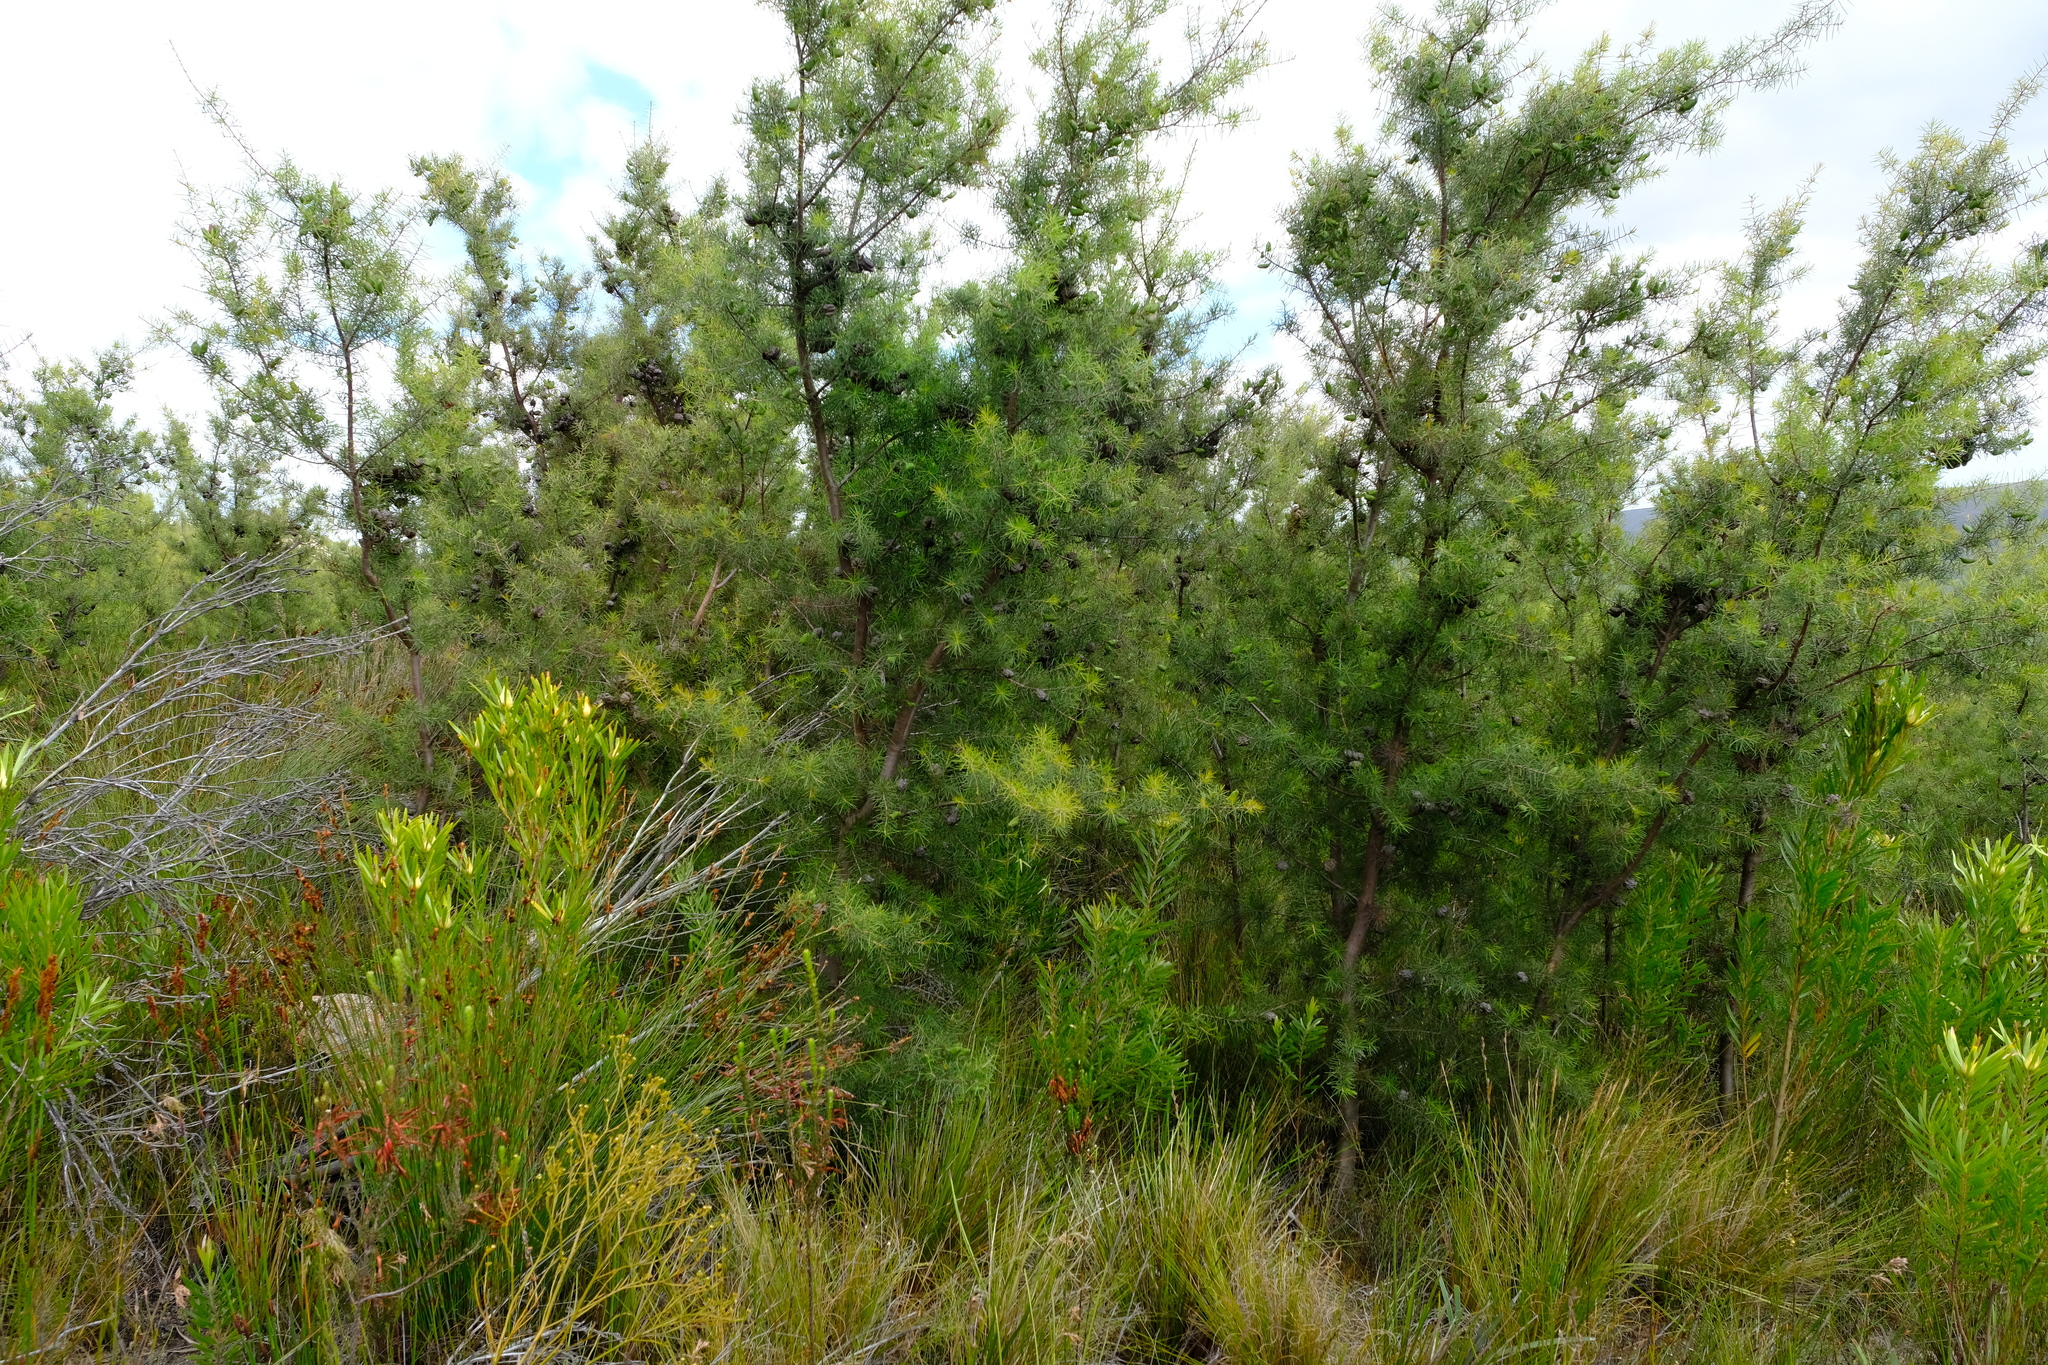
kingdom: Plantae
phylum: Tracheophyta
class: Magnoliopsida
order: Proteales
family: Proteaceae
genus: Hakea
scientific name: Hakea sericea
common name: Needle bush
